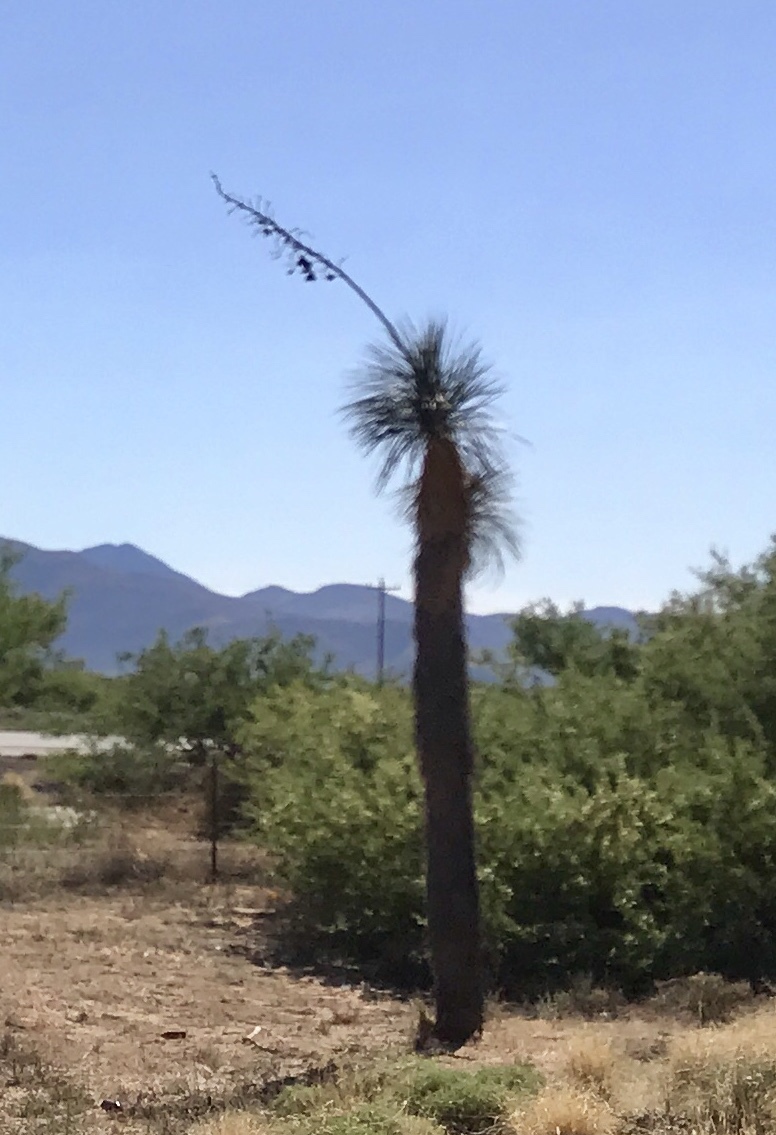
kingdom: Plantae
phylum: Tracheophyta
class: Liliopsida
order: Asparagales
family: Asparagaceae
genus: Yucca
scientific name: Yucca elata
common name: Palmella
